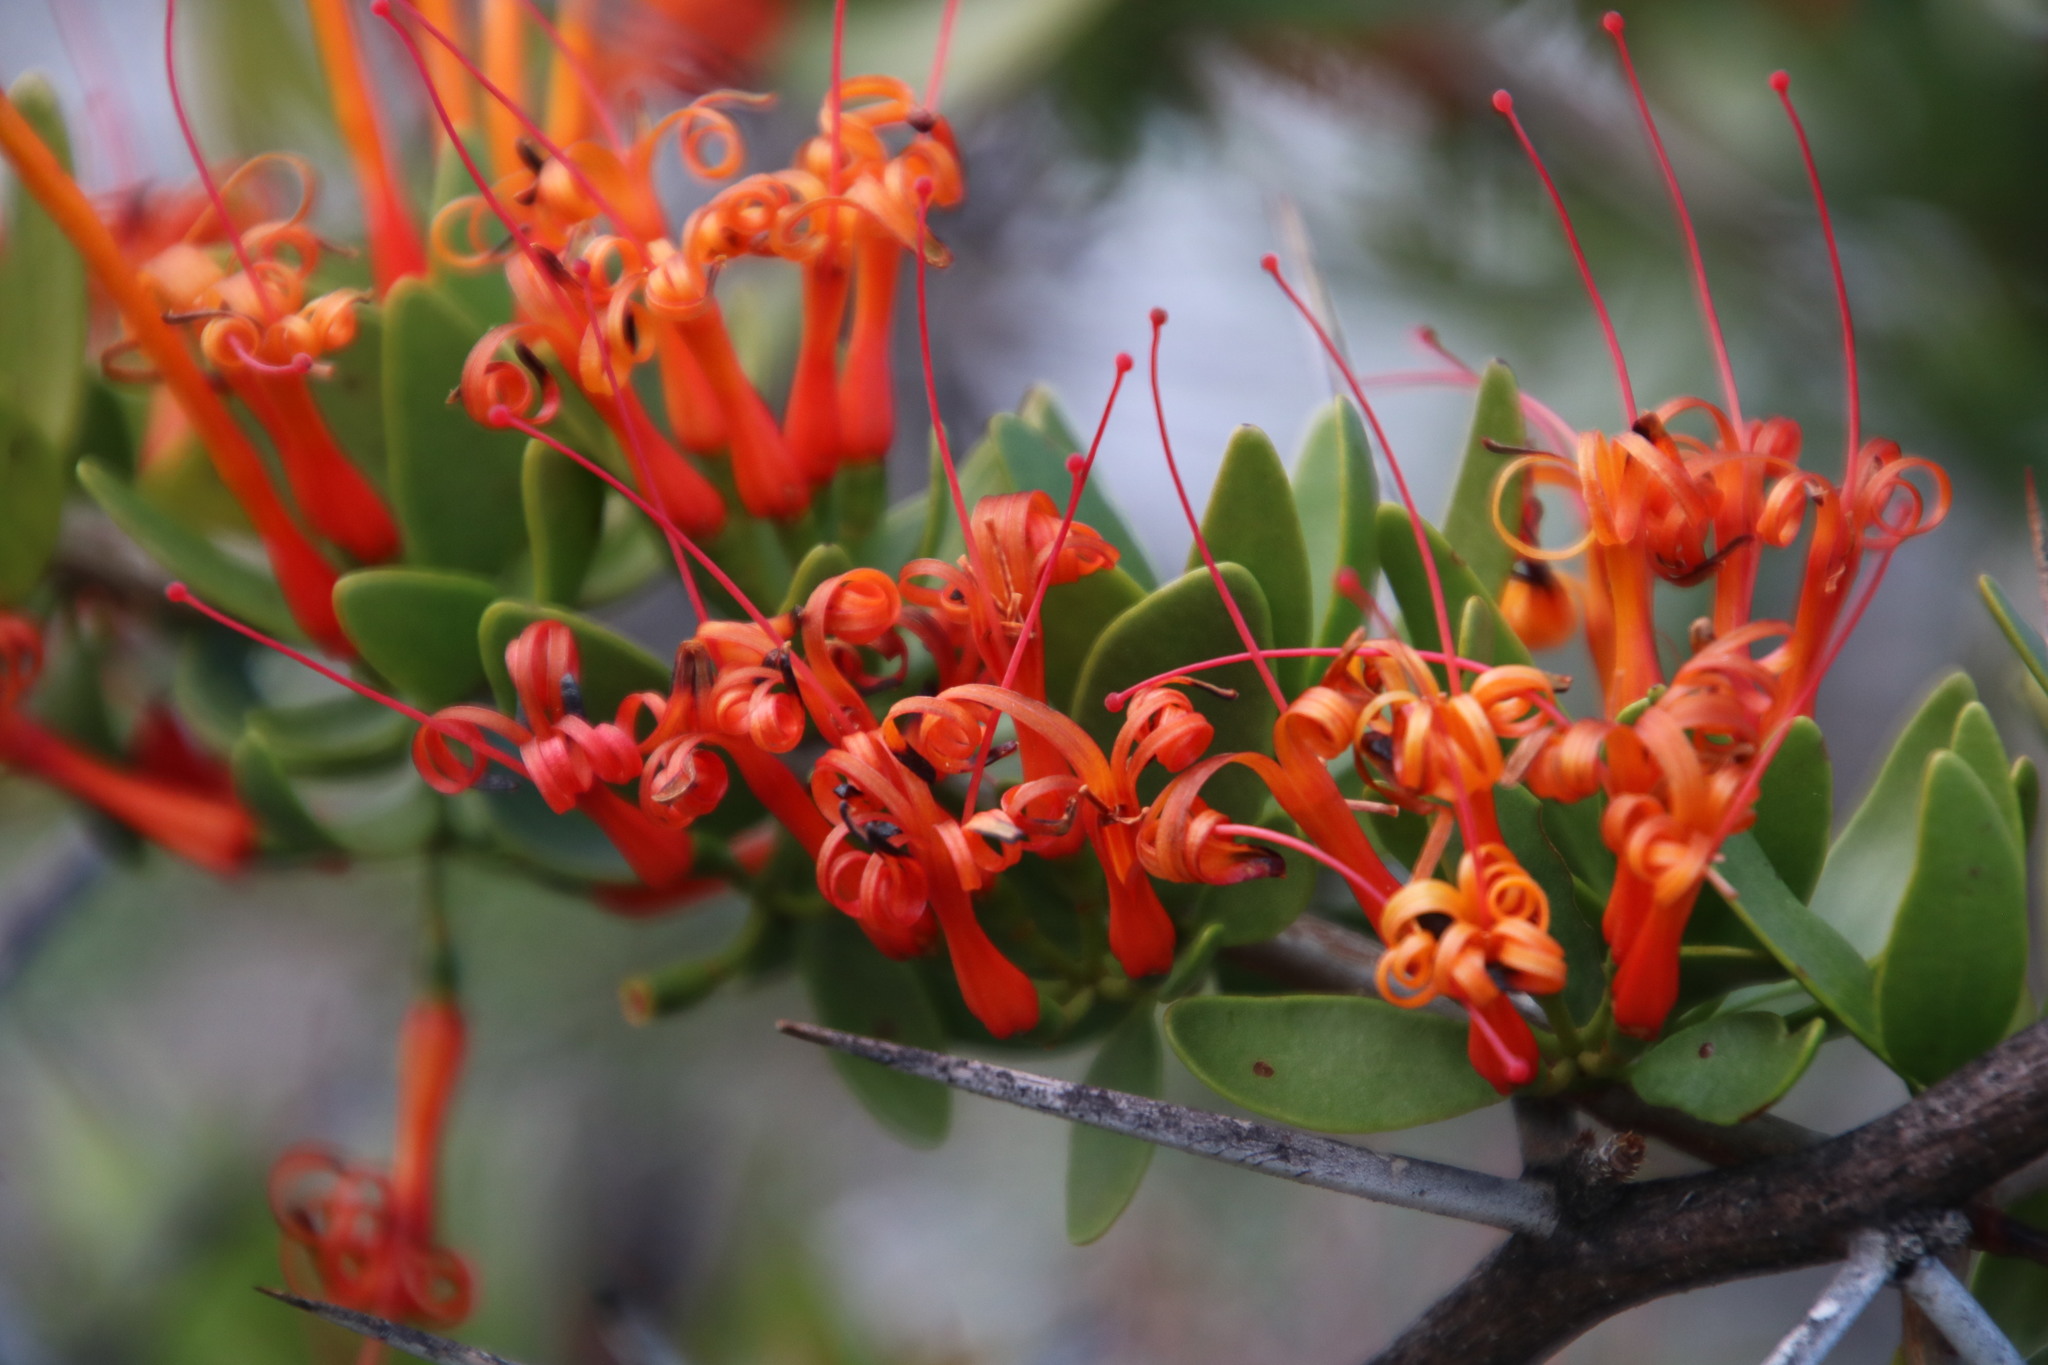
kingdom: Plantae
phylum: Tracheophyta
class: Magnoliopsida
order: Santalales
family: Loranthaceae
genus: Moquiniella
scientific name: Moquiniella rubra
